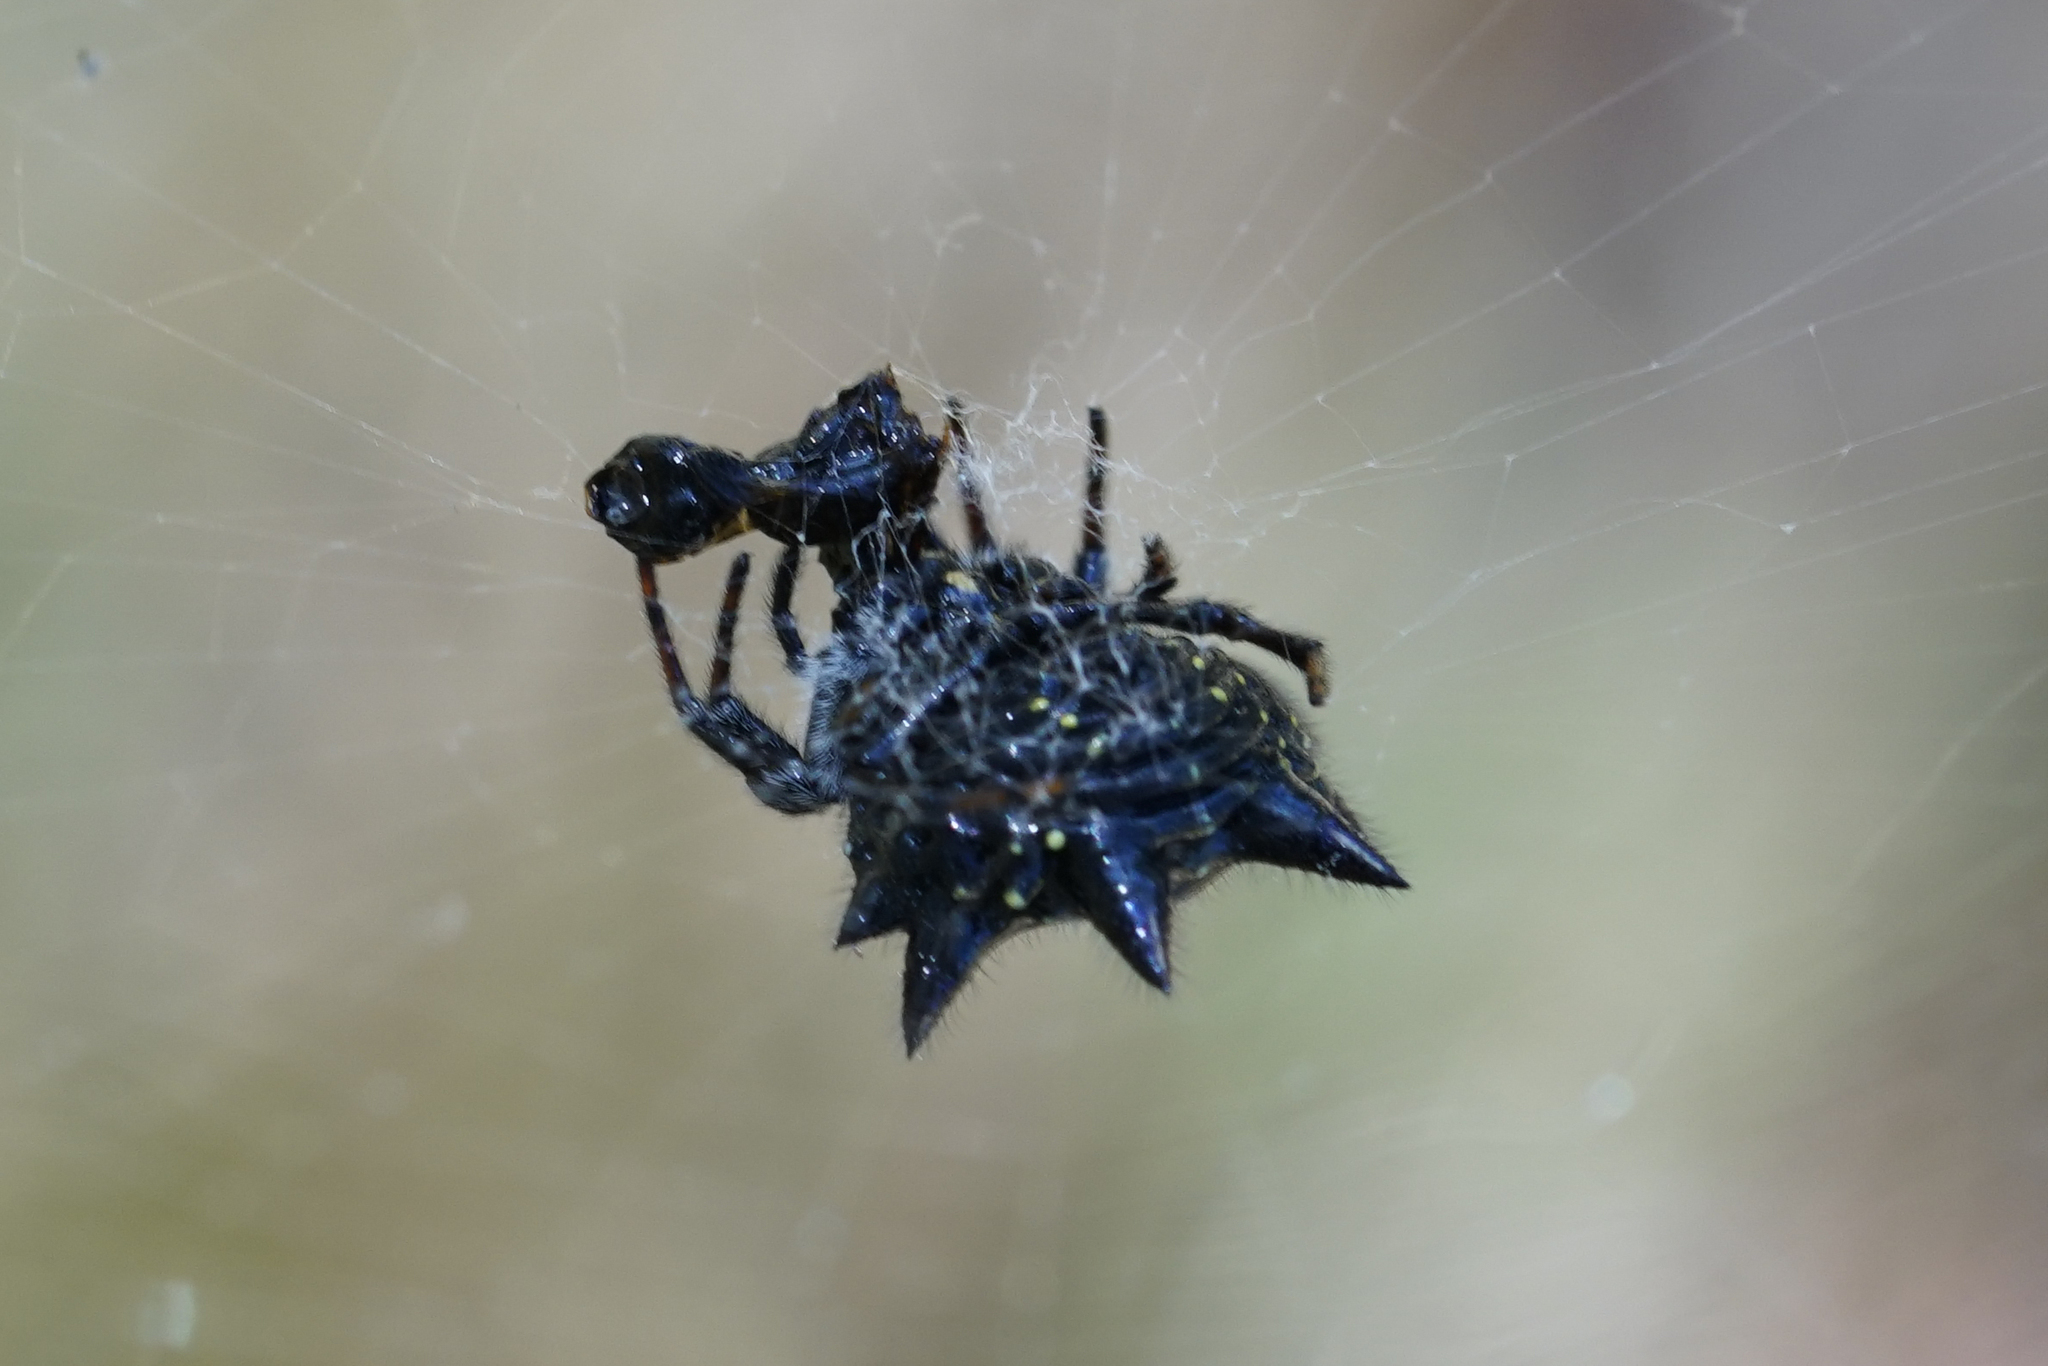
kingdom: Animalia
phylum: Arthropoda
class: Arachnida
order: Araneae
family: Araneidae
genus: Austracantha
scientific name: Austracantha minax
